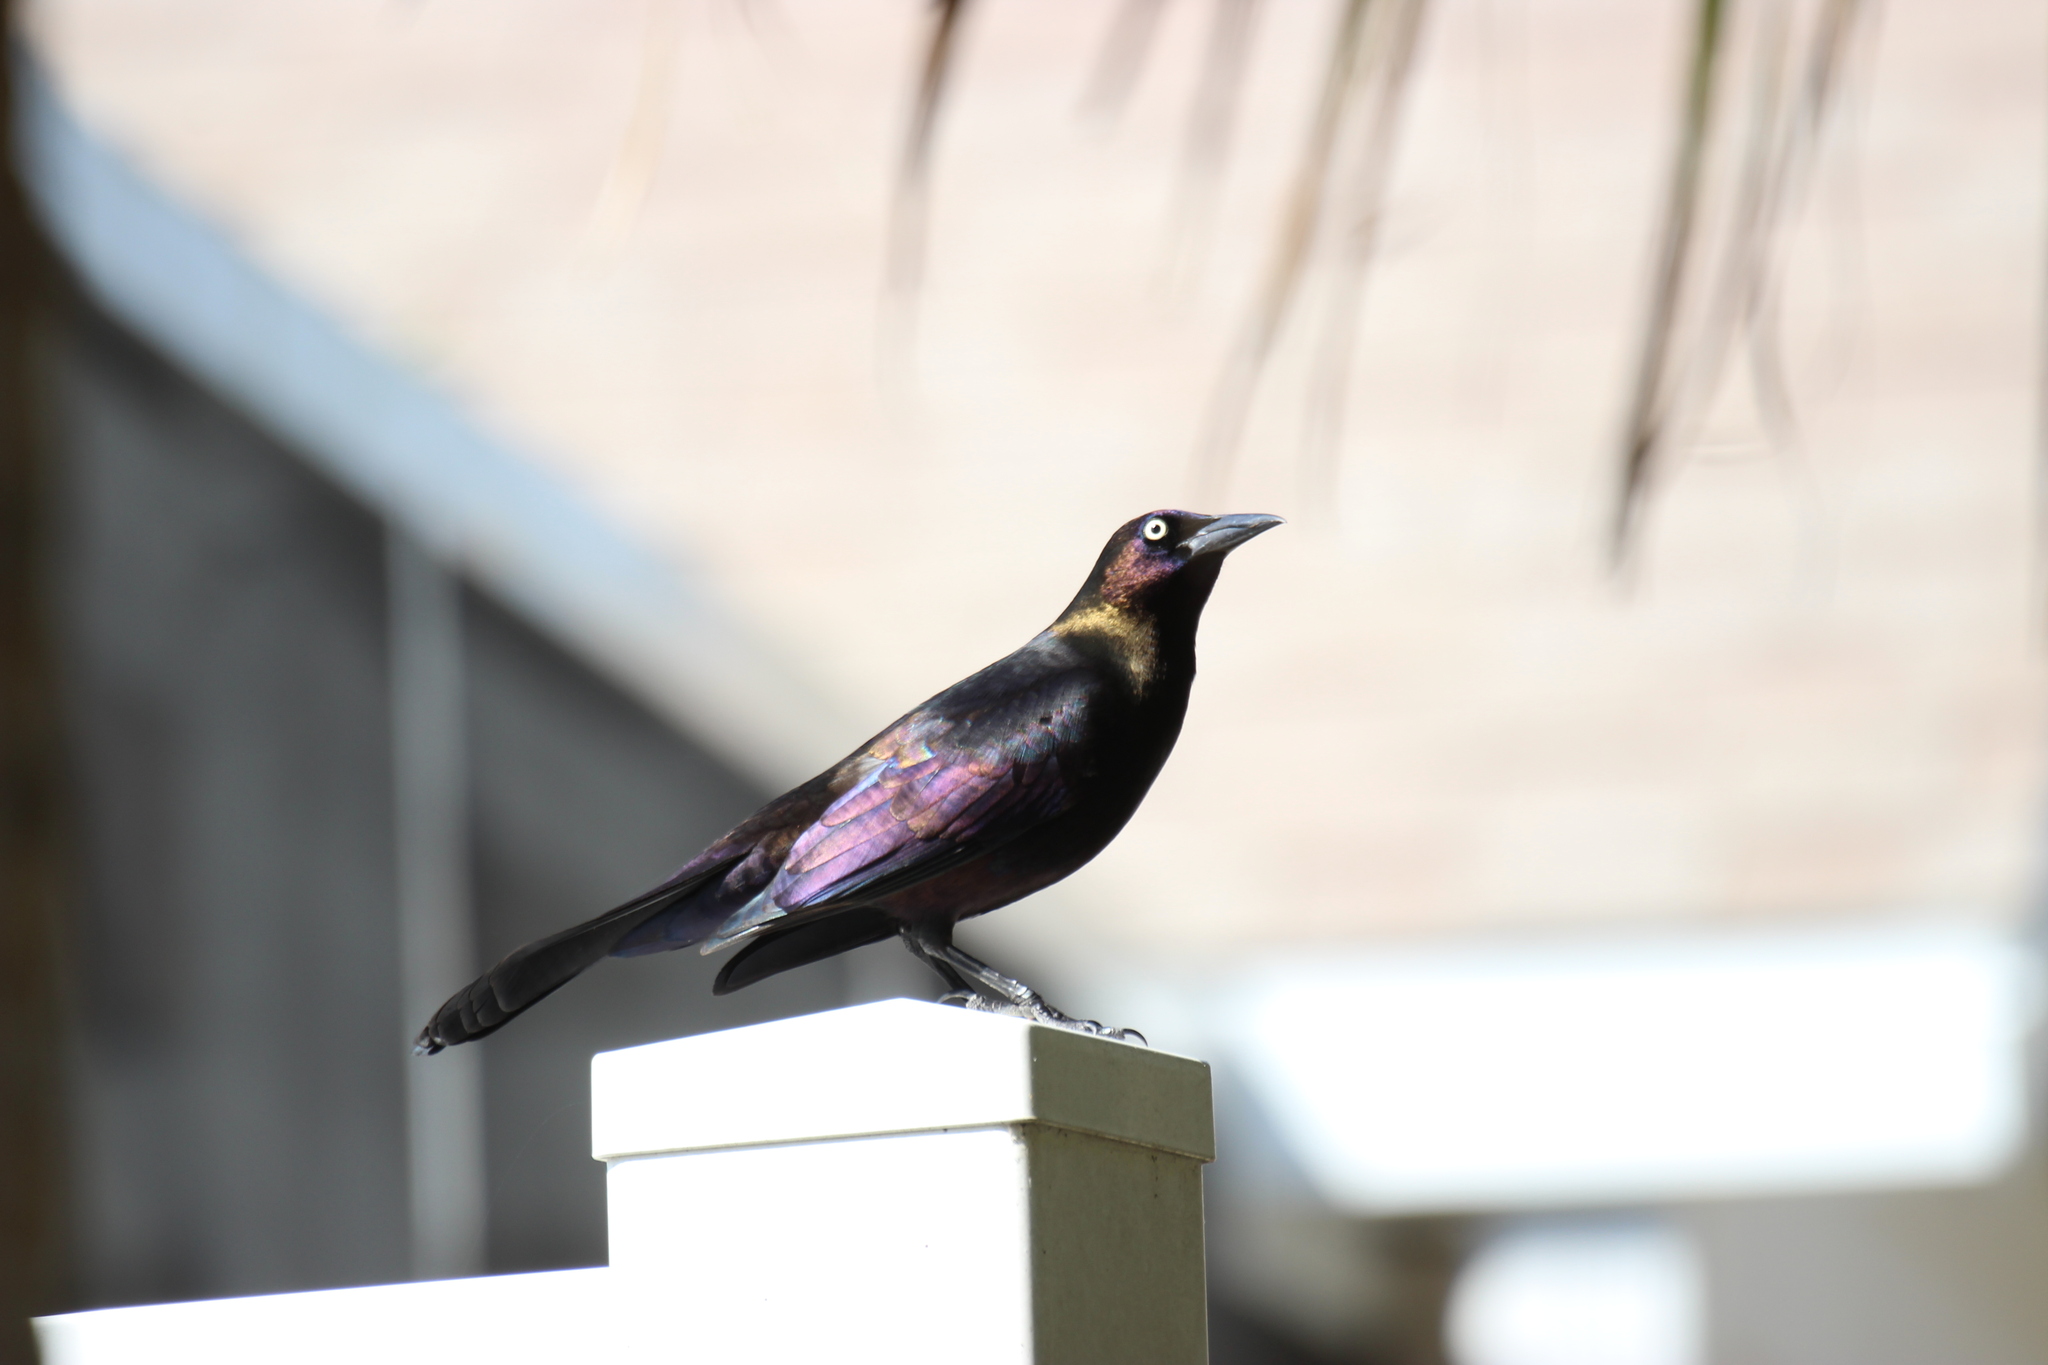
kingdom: Animalia
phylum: Chordata
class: Aves
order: Passeriformes
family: Icteridae
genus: Quiscalus
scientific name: Quiscalus quiscula
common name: Common grackle
